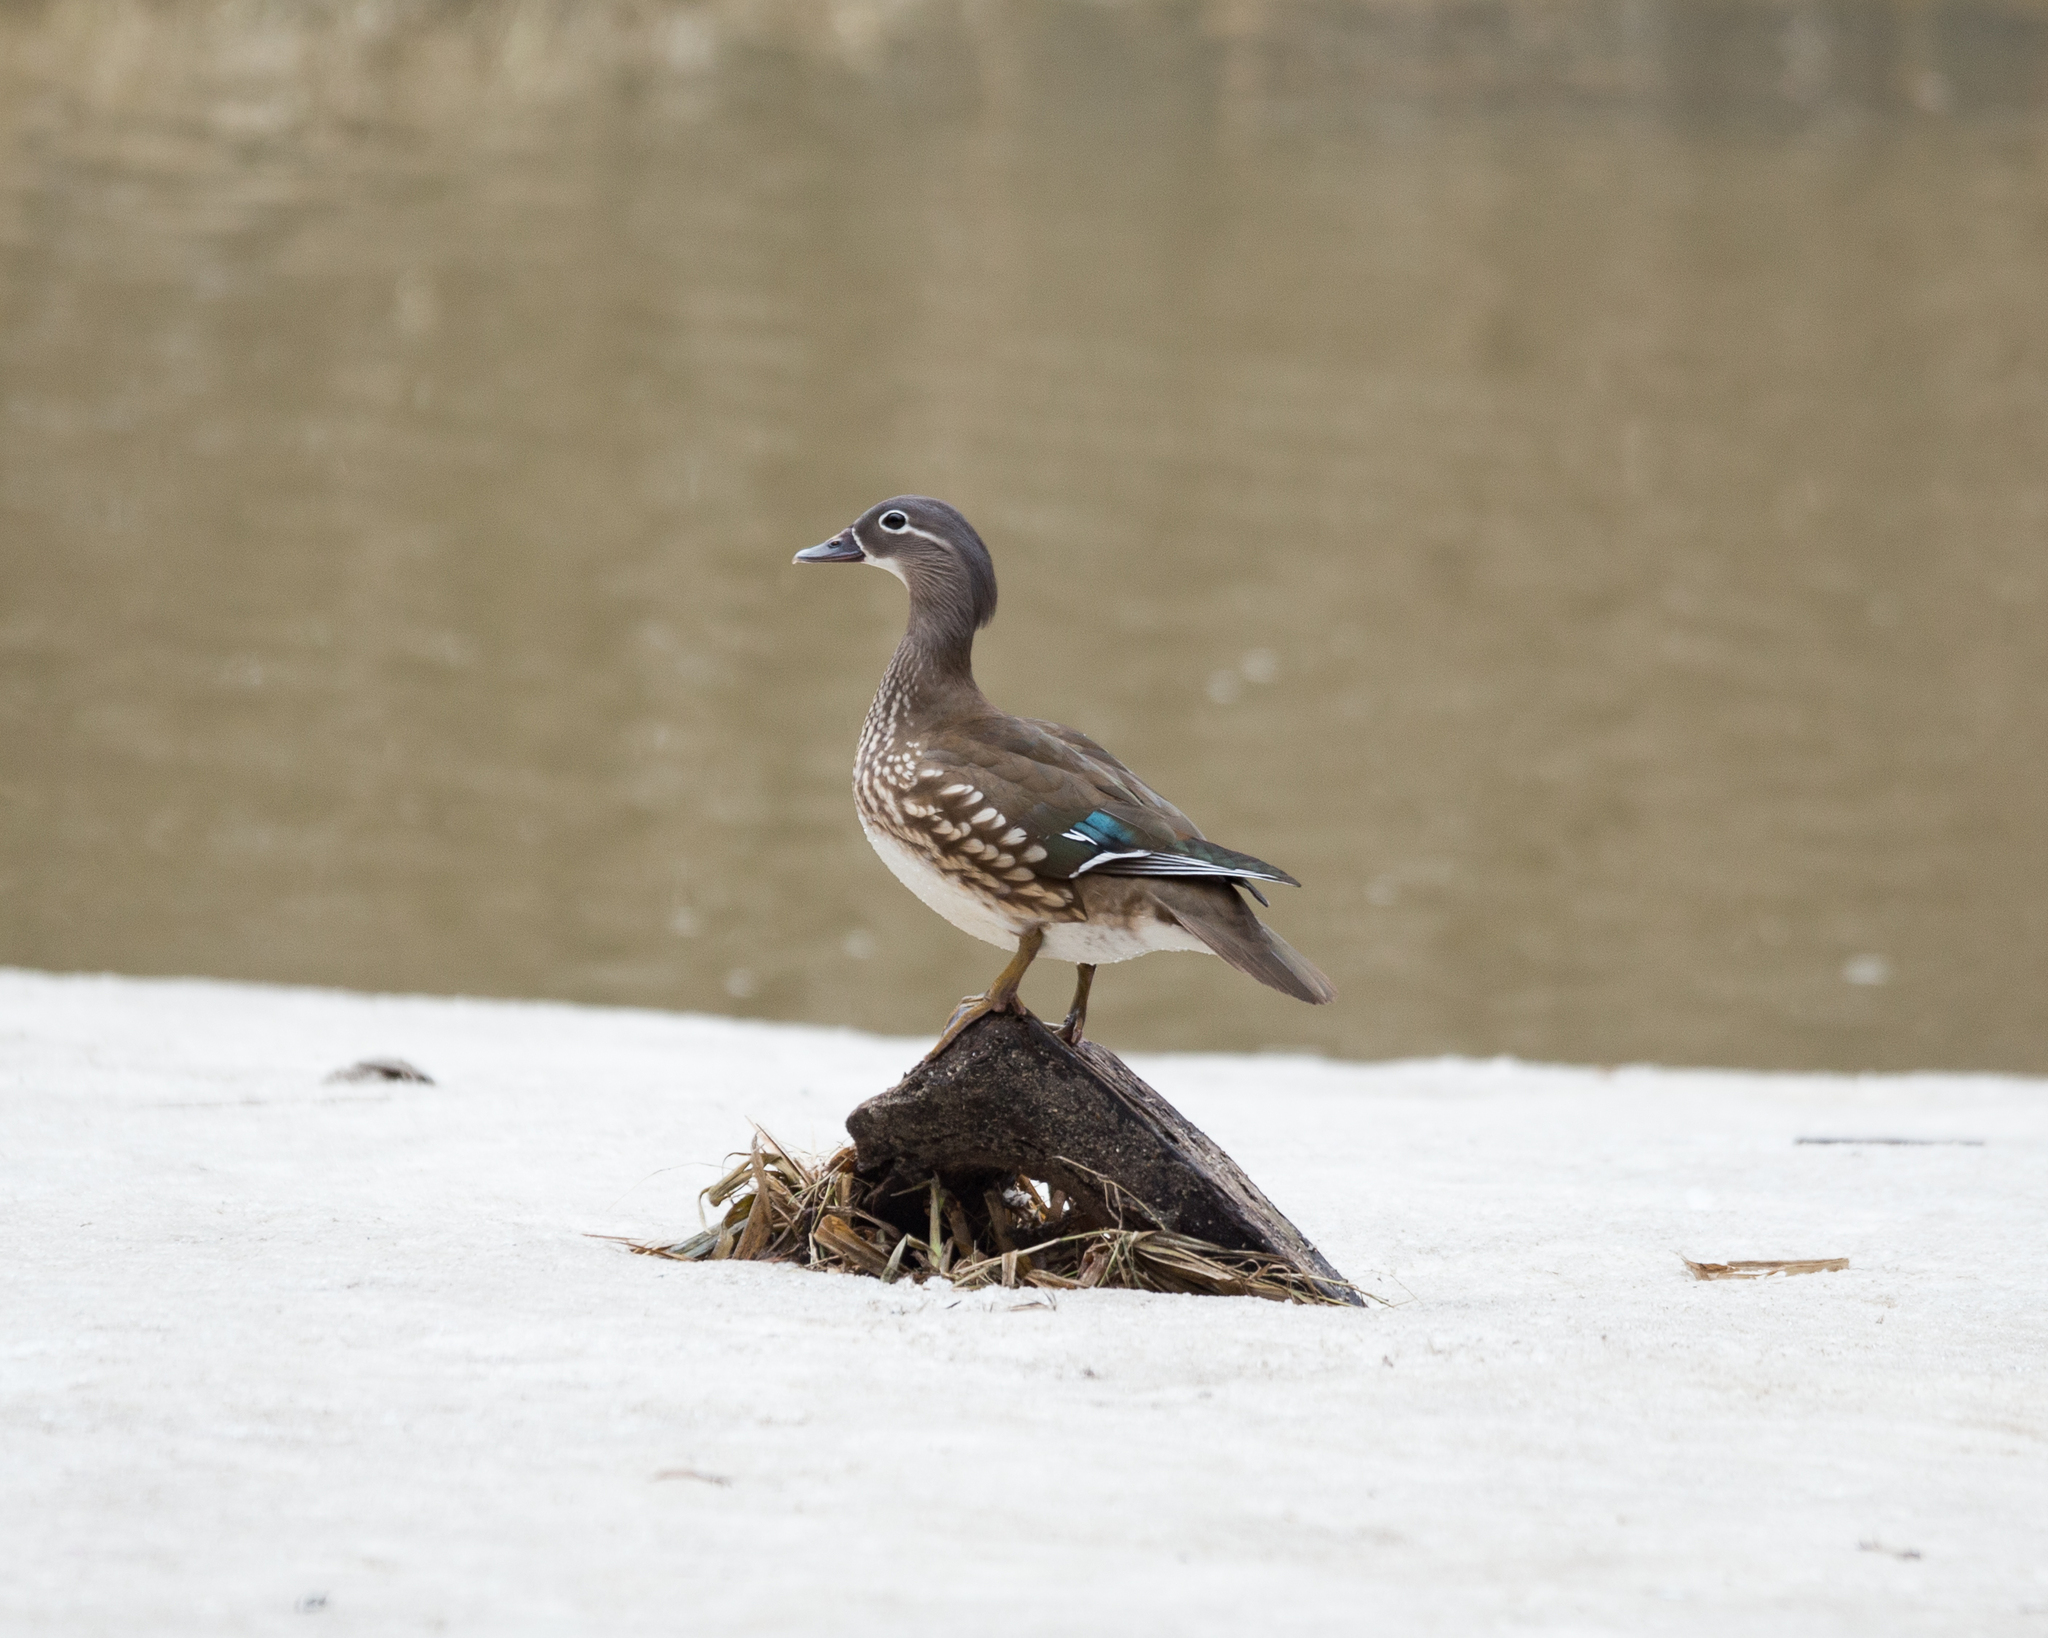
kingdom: Animalia
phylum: Chordata
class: Aves
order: Anseriformes
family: Anatidae
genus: Aix
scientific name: Aix galericulata
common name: Mandarin duck
